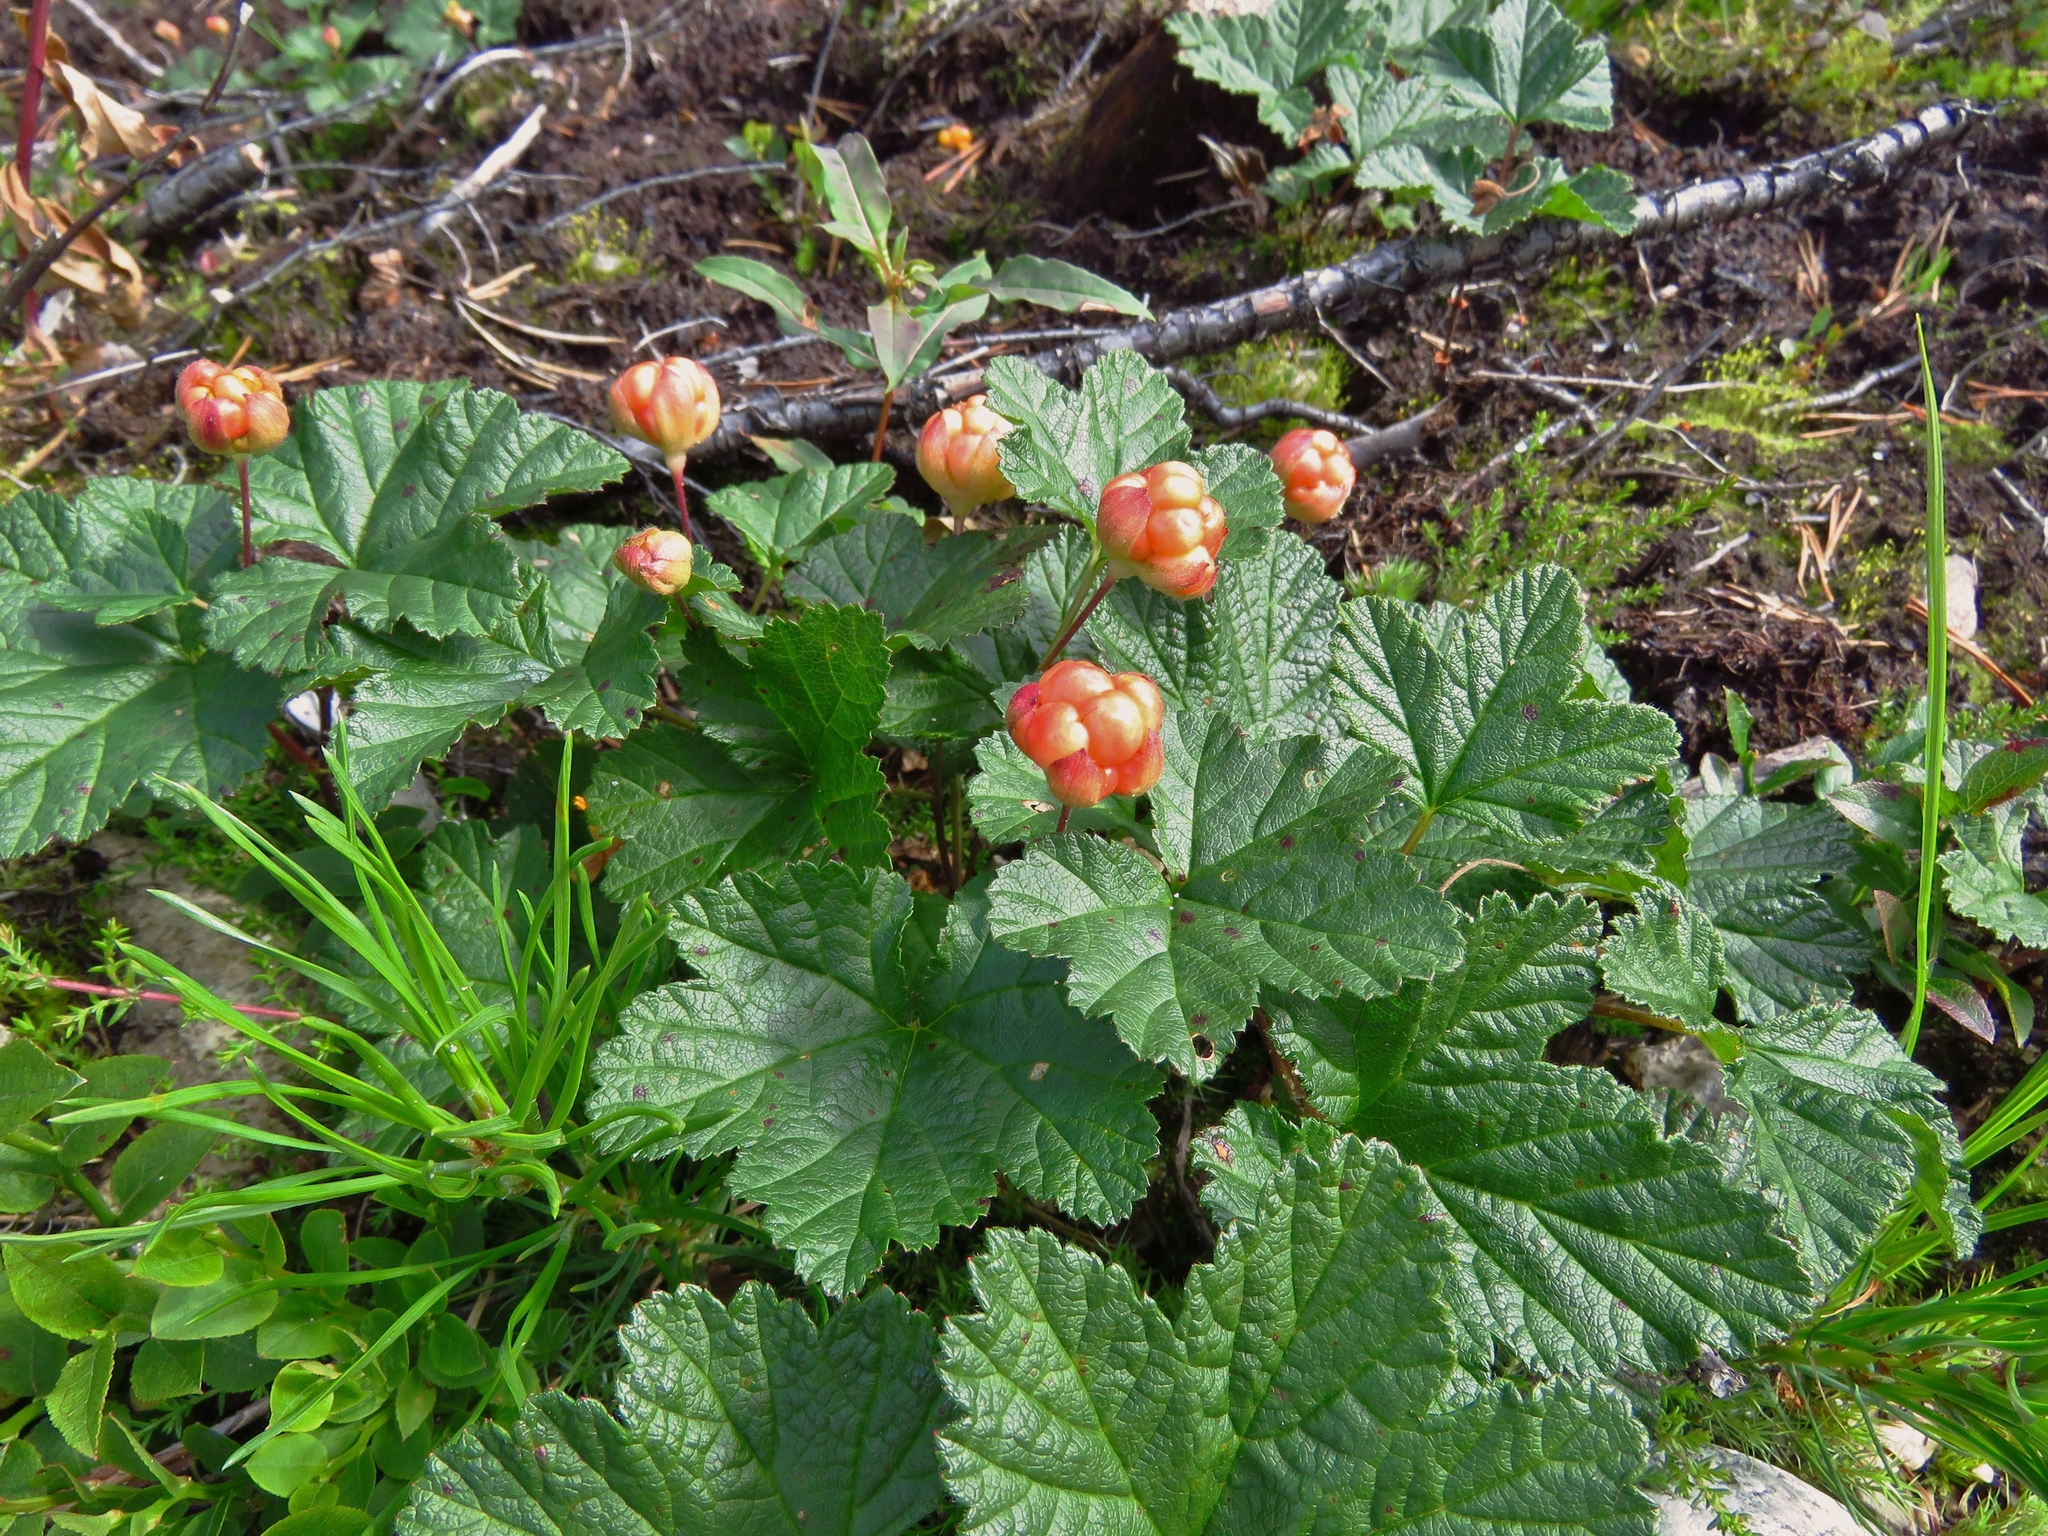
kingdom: Plantae
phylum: Tracheophyta
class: Magnoliopsida
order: Rosales
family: Rosaceae
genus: Rubus
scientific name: Rubus chamaemorus
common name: Cloudberry
